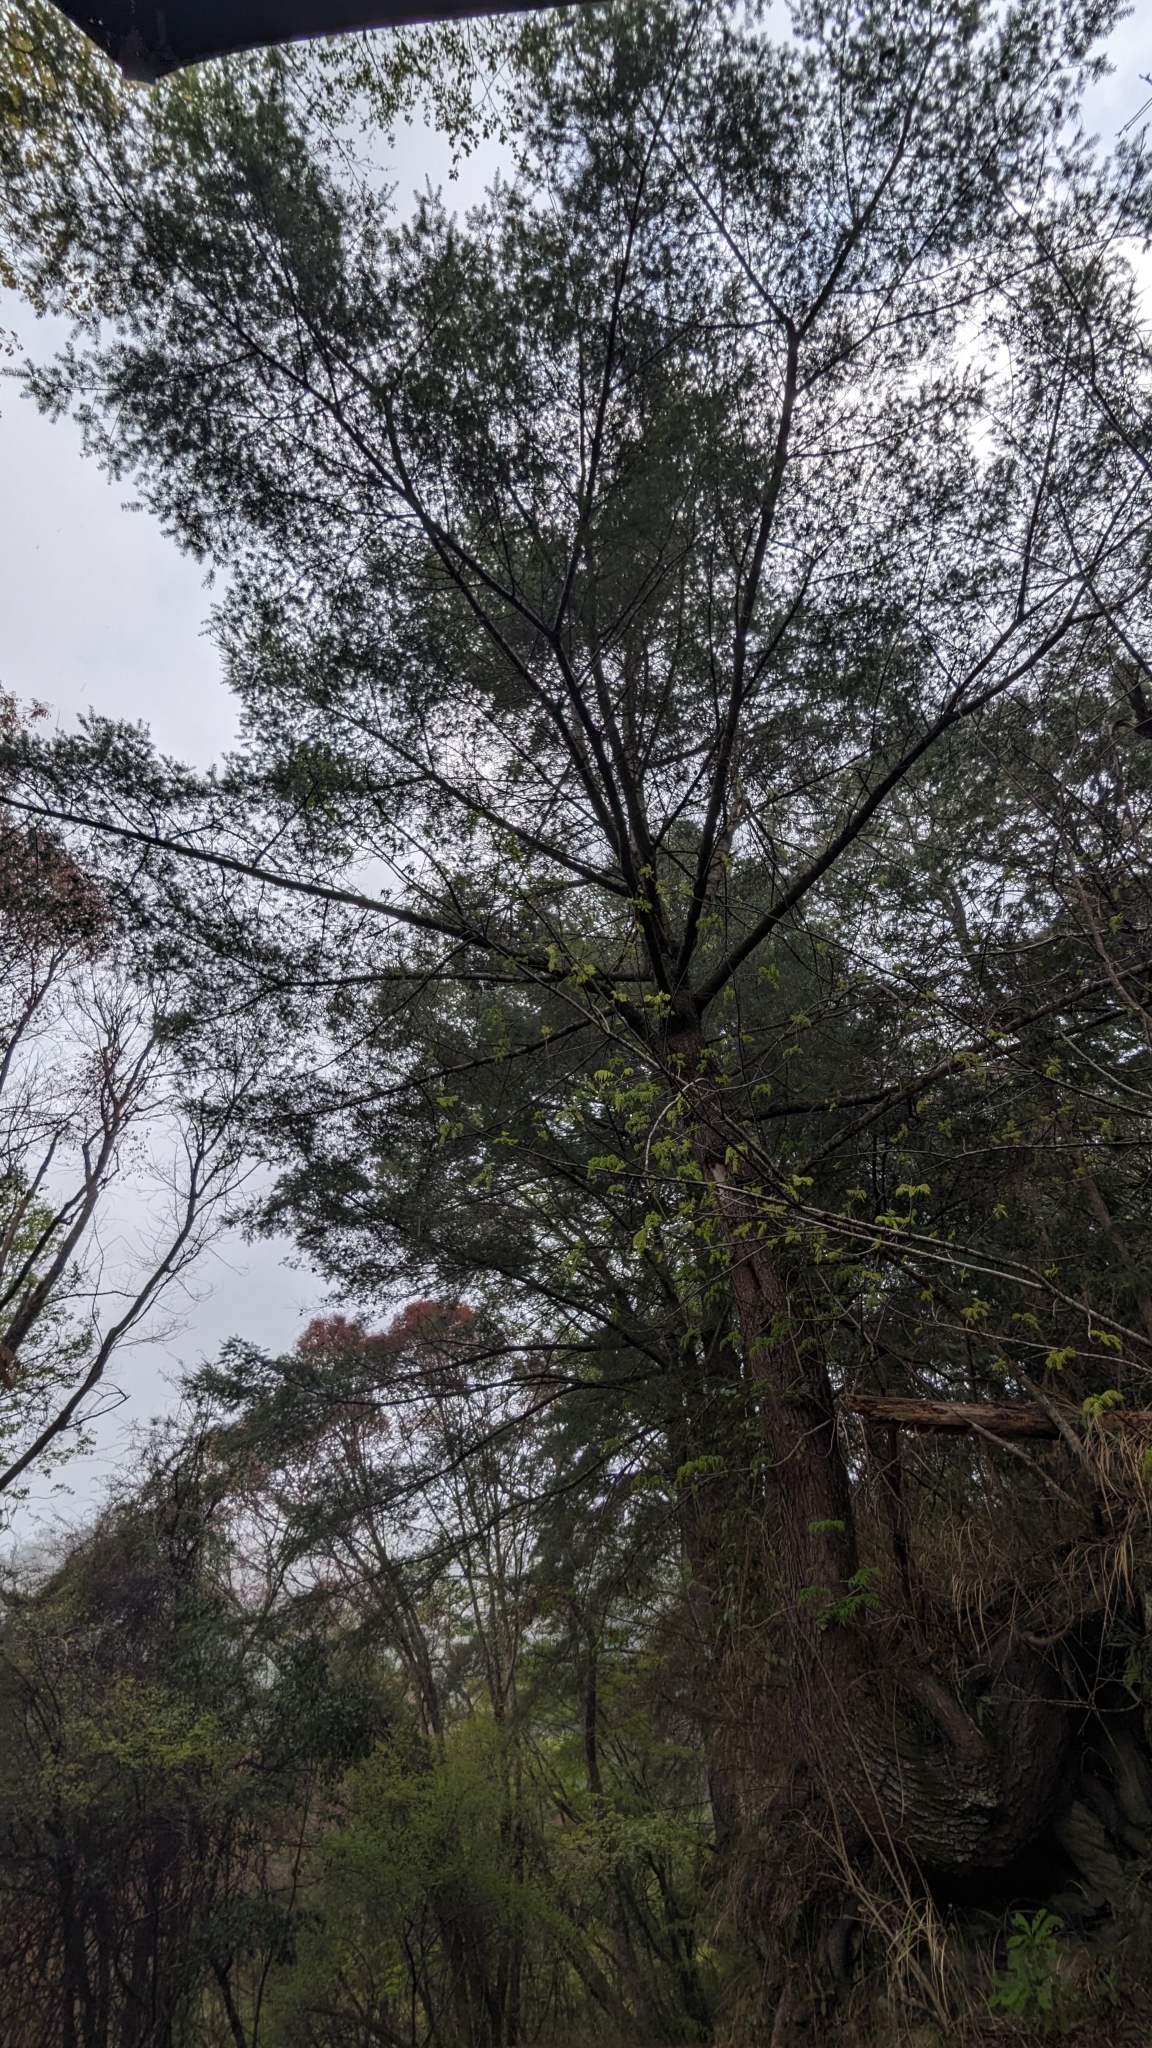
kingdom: Plantae
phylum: Tracheophyta
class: Pinopsida
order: Pinales
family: Pinaceae
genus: Pseudotsuga
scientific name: Pseudotsuga sinensis
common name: Chinese douglas-fir
